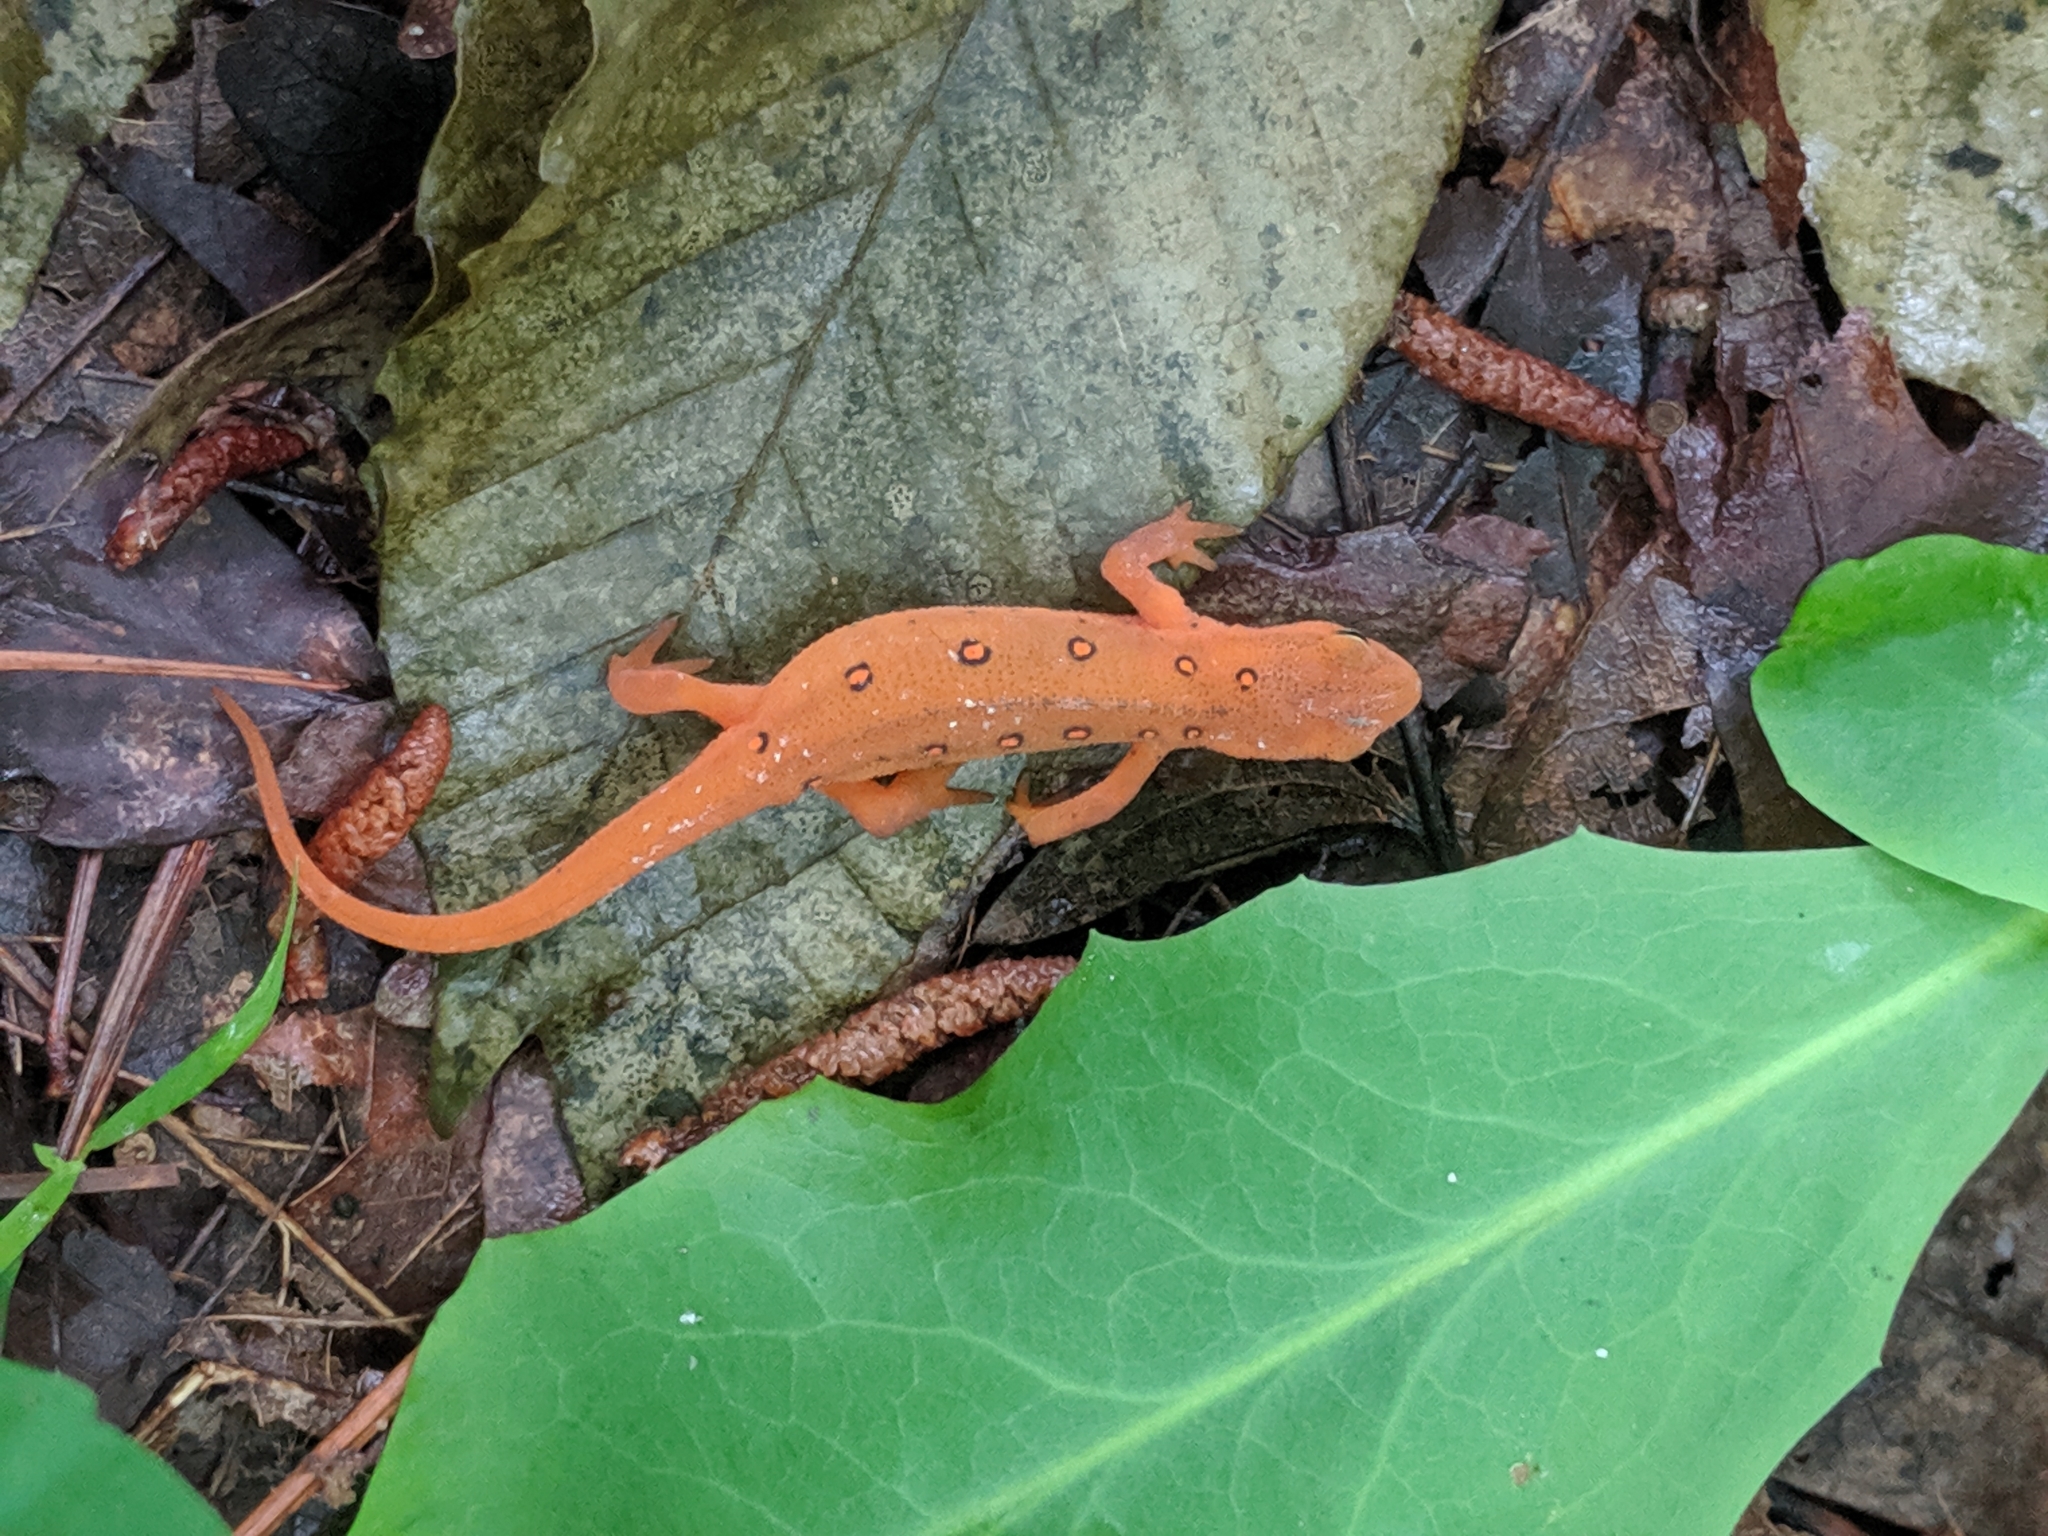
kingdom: Animalia
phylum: Chordata
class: Amphibia
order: Caudata
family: Salamandridae
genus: Notophthalmus
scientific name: Notophthalmus viridescens
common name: Eastern newt
